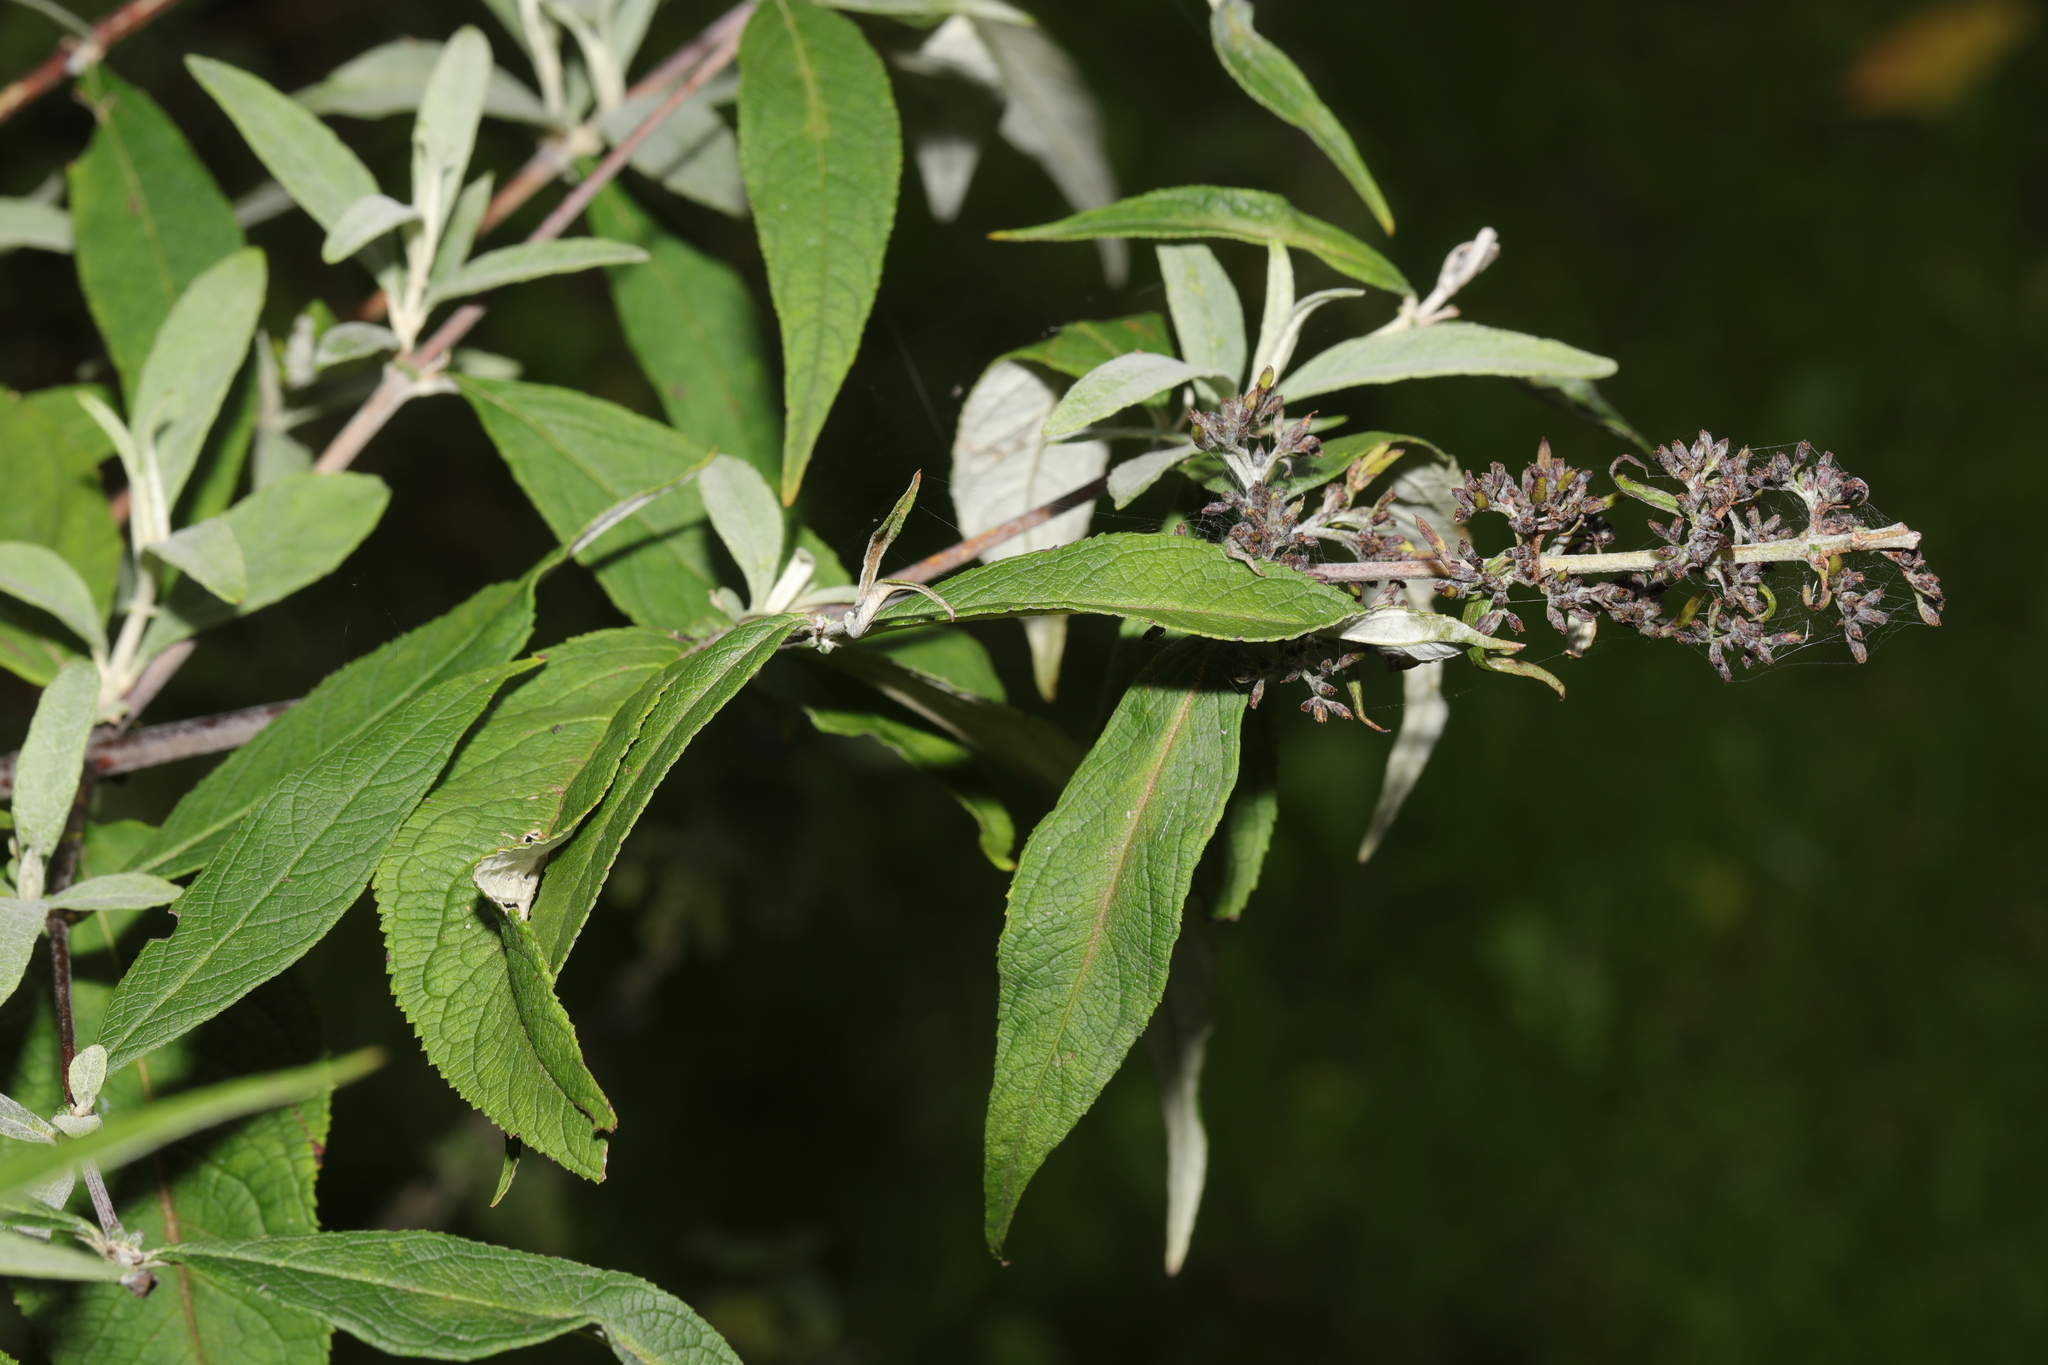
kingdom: Plantae
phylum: Tracheophyta
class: Magnoliopsida
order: Lamiales
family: Scrophulariaceae
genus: Buddleja
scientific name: Buddleja davidii
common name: Butterfly-bush
